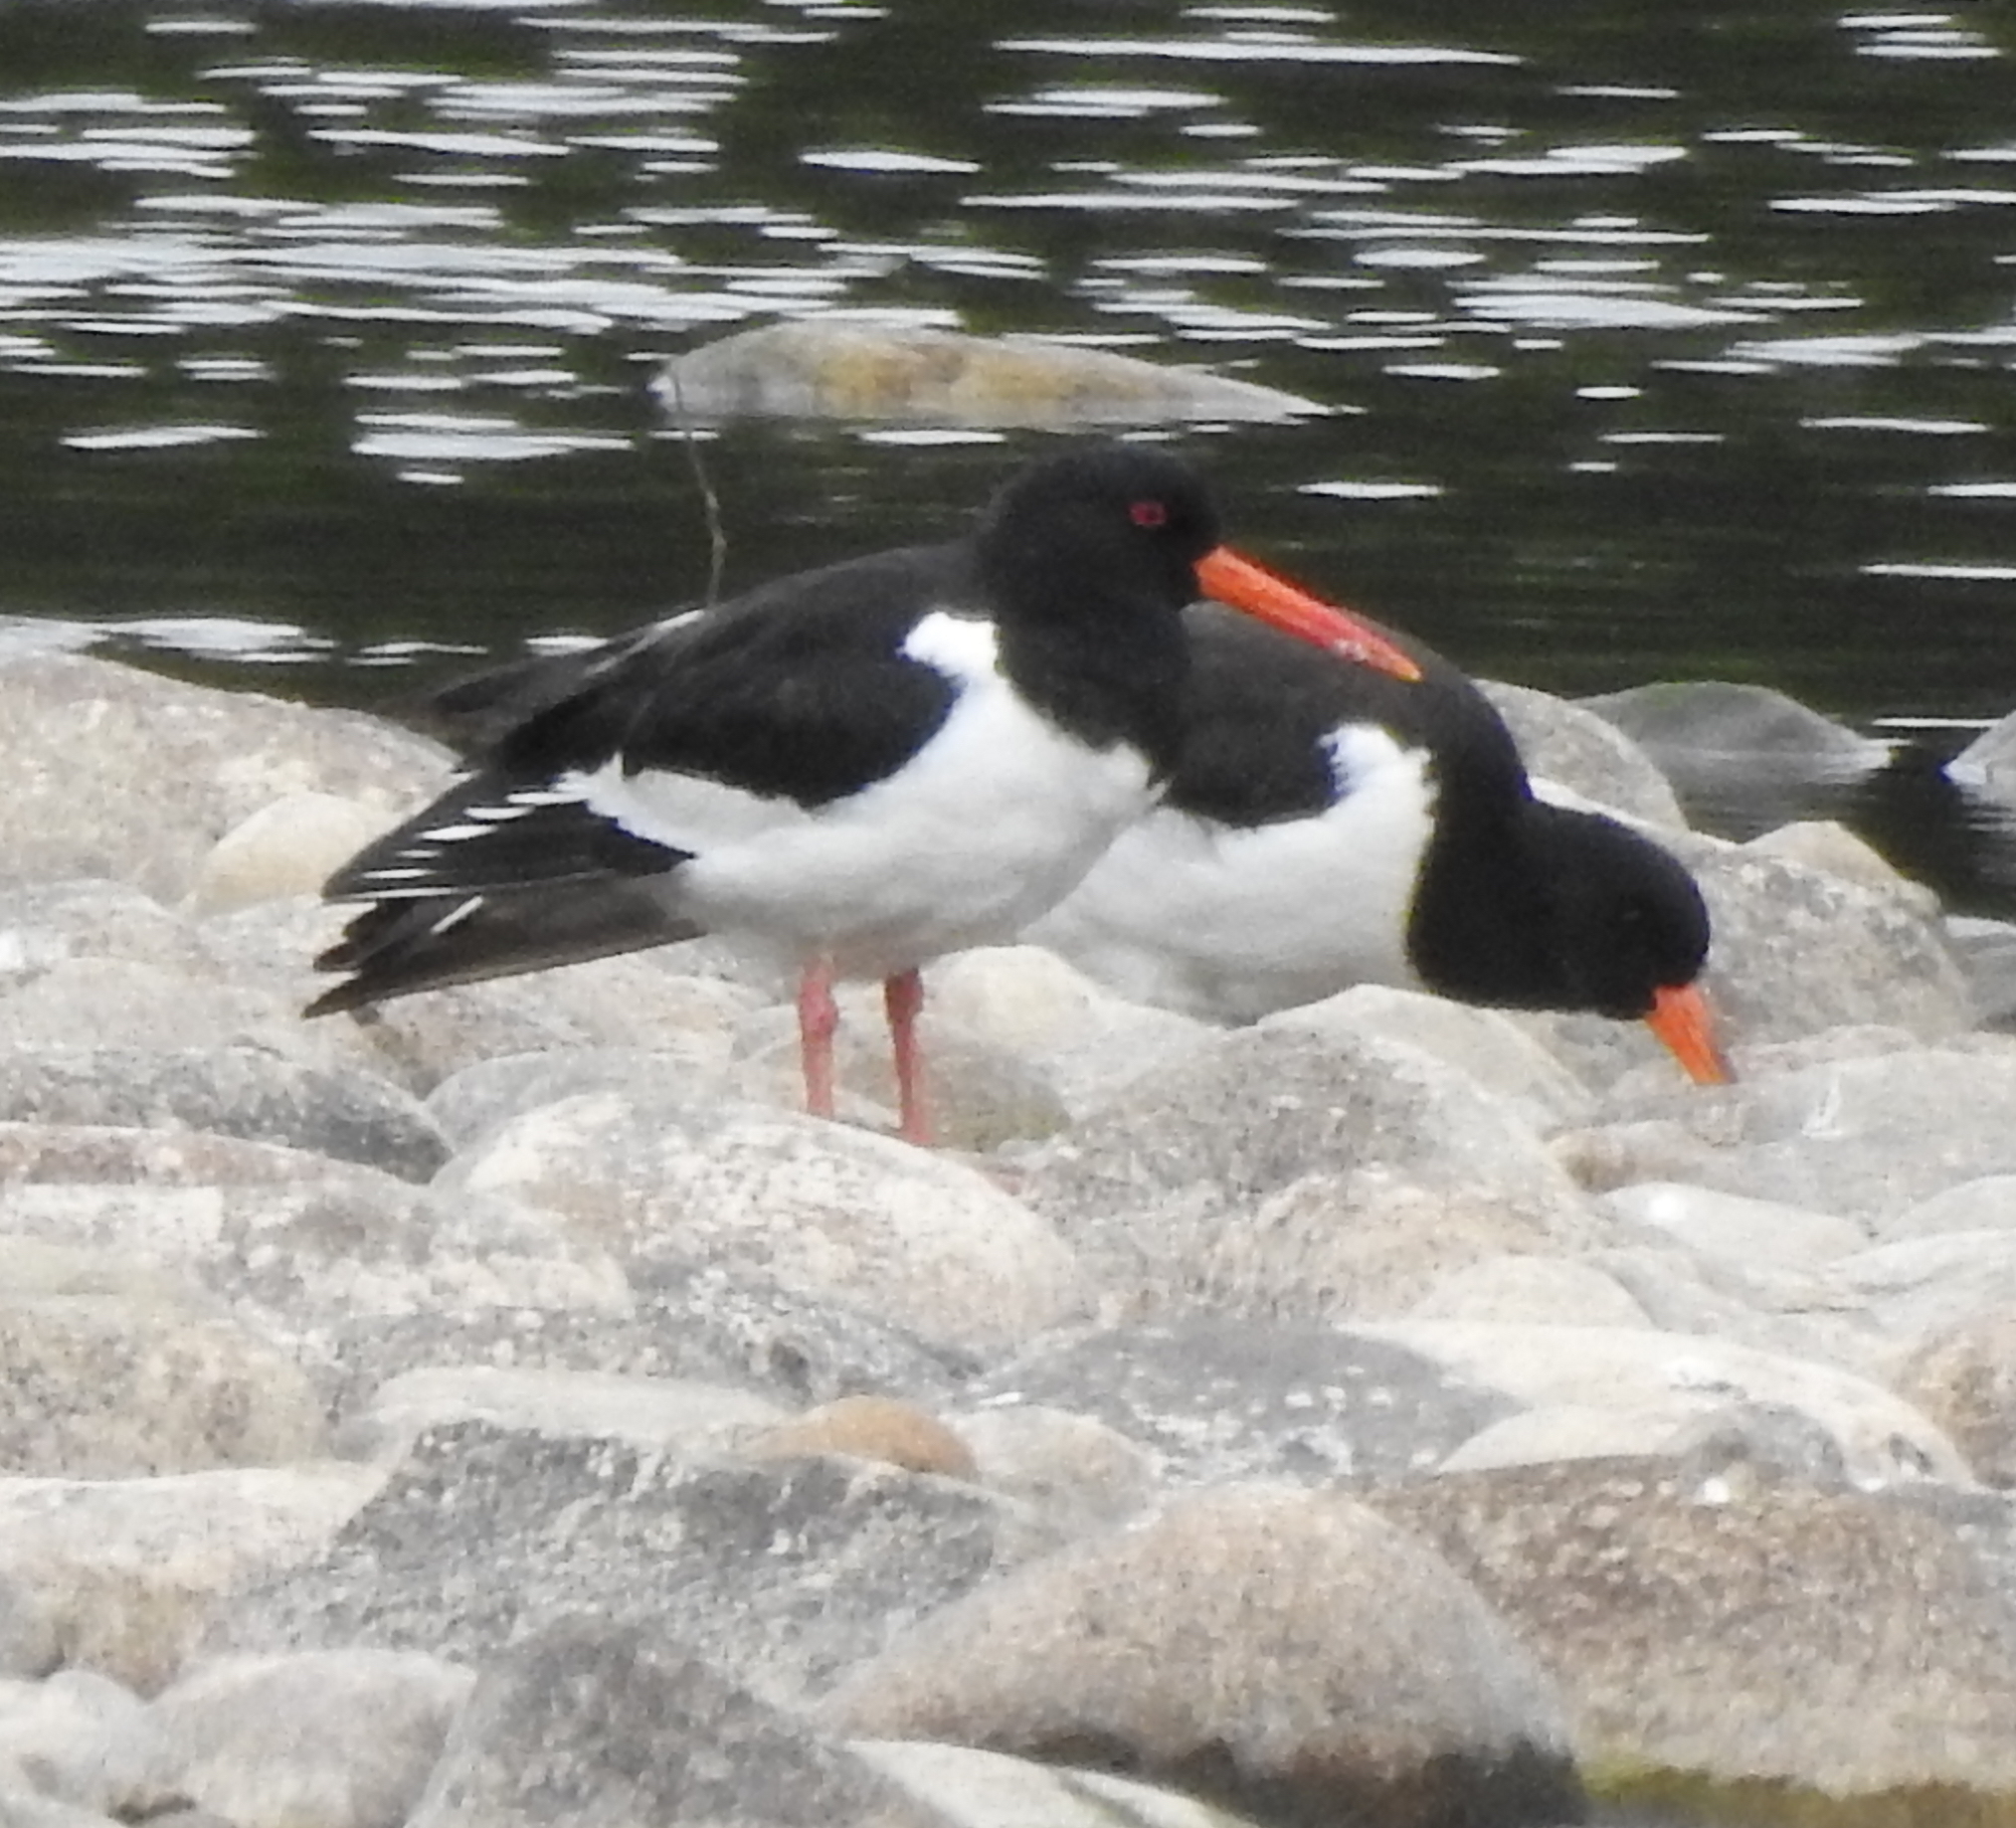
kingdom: Animalia
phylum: Chordata
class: Aves
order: Charadriiformes
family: Haematopodidae
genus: Haematopus
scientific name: Haematopus ostralegus
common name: Eurasian oystercatcher
